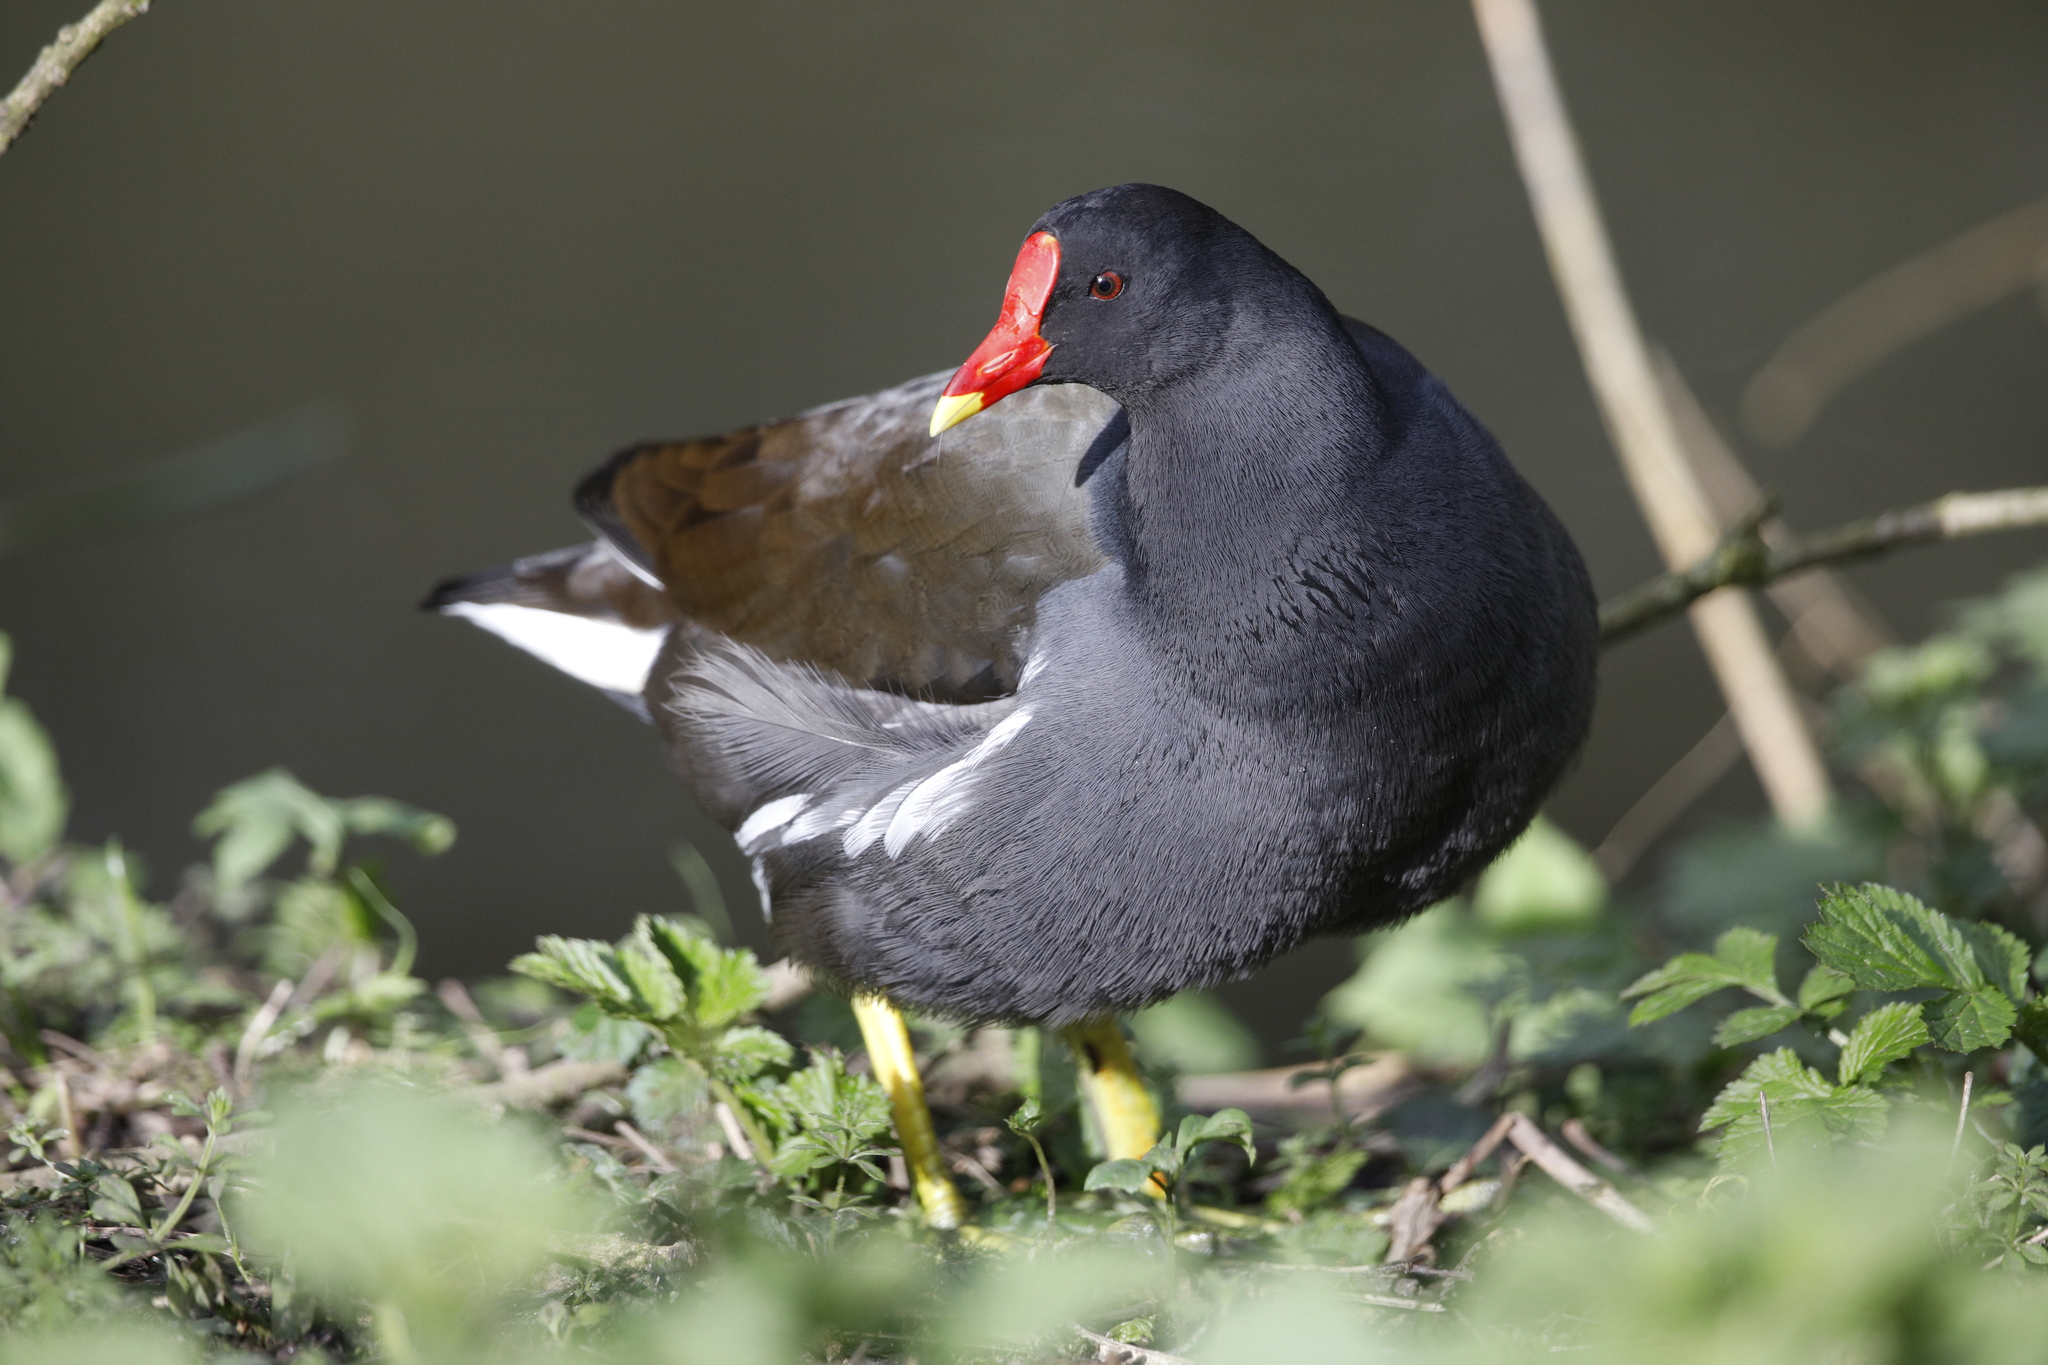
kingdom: Animalia
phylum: Chordata
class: Aves
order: Gruiformes
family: Rallidae
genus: Gallinula
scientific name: Gallinula chloropus
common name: Common moorhen
